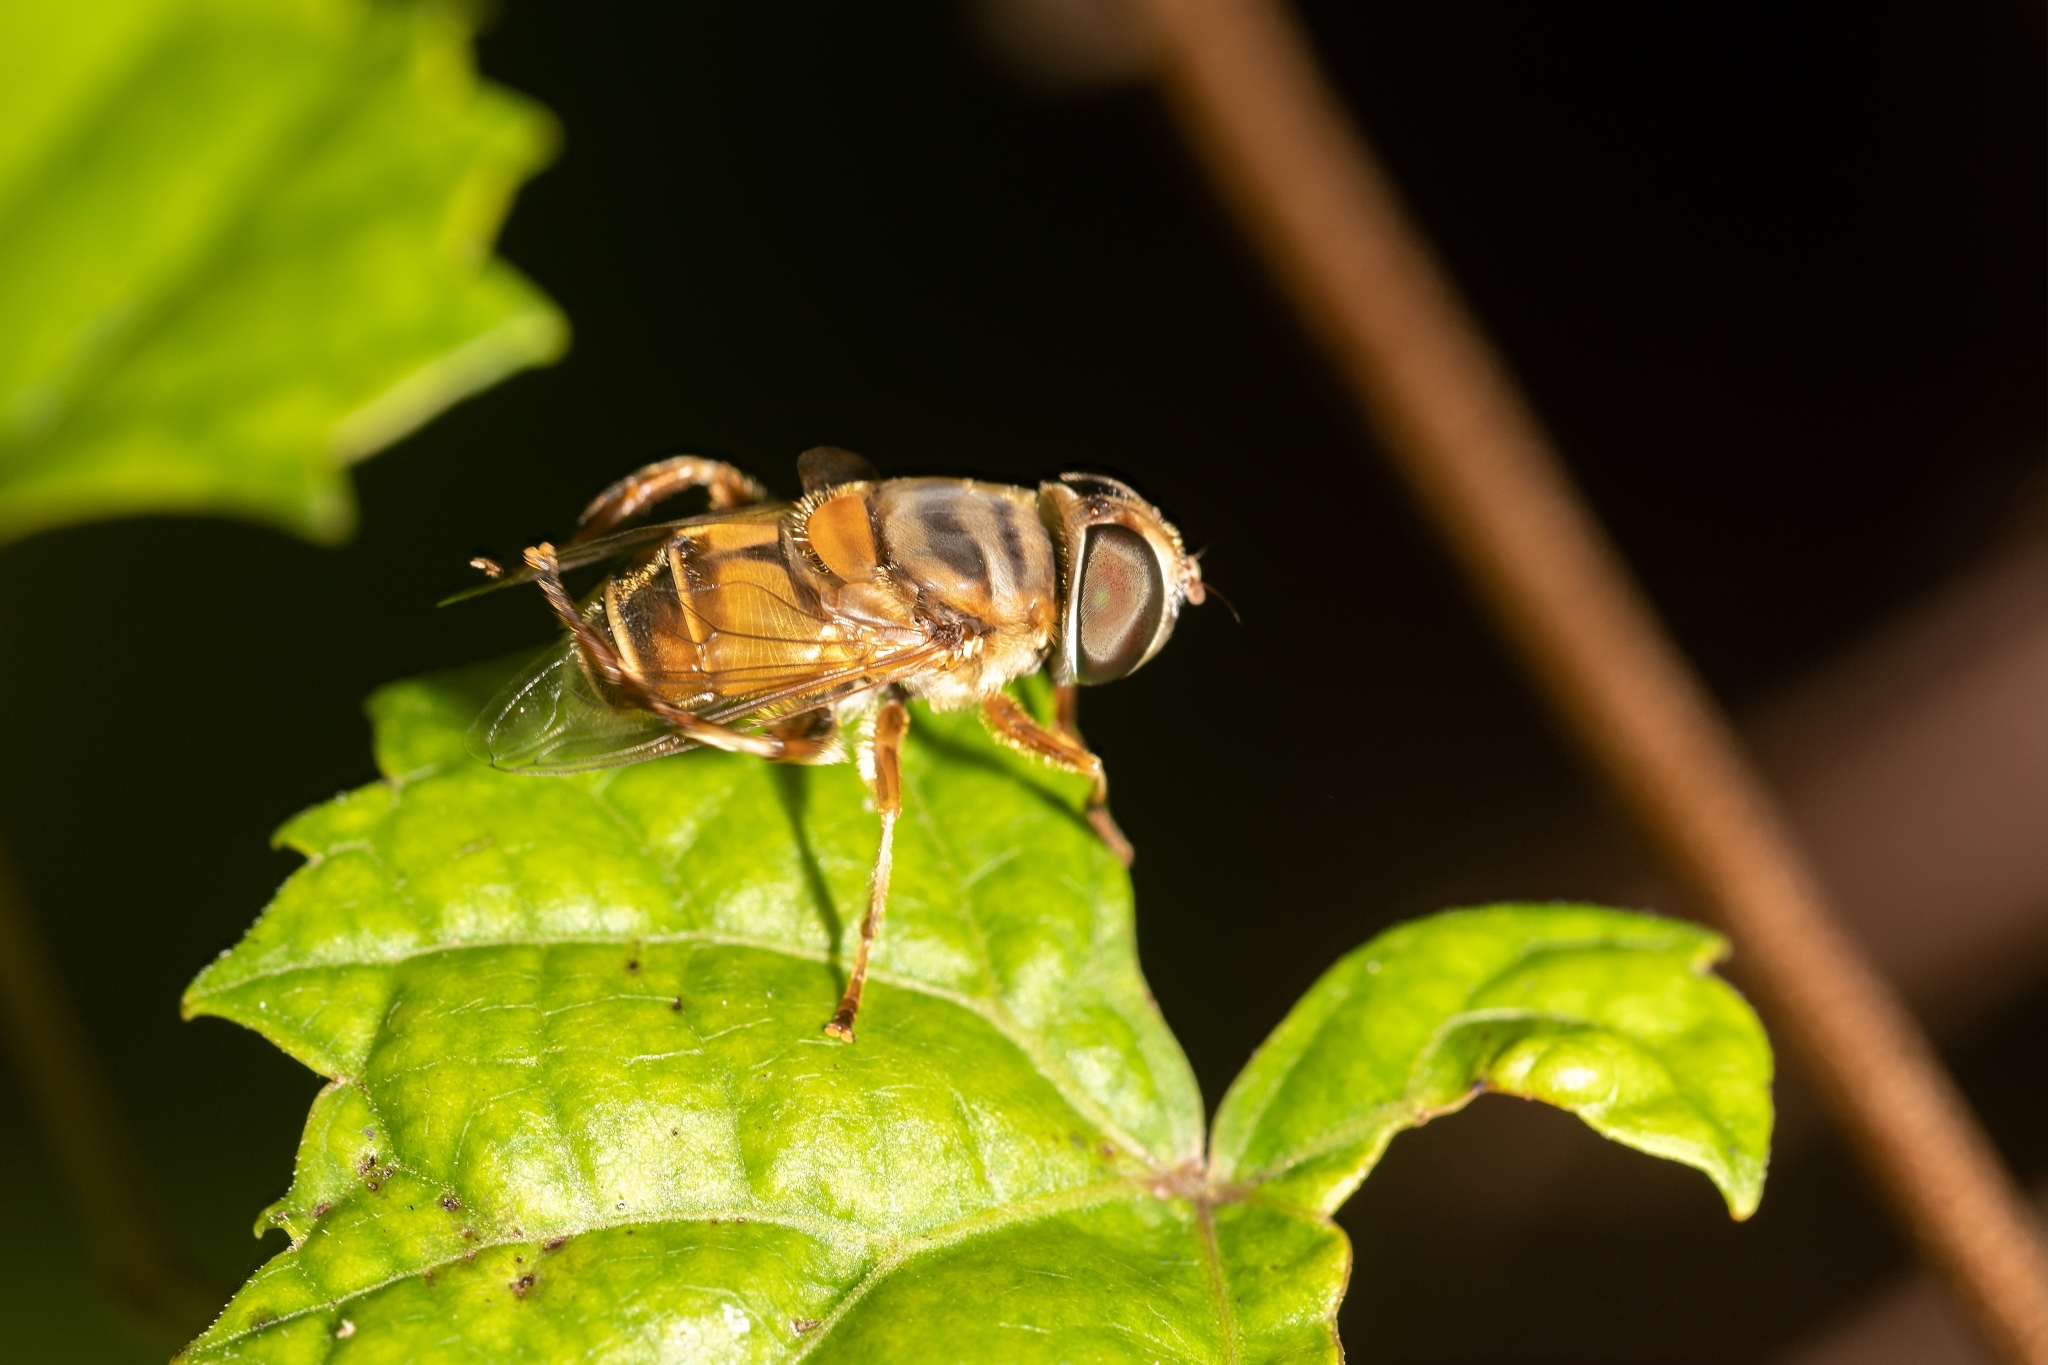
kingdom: Animalia
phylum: Arthropoda
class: Insecta
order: Diptera
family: Syrphidae
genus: Palpada
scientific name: Palpada agrorum
